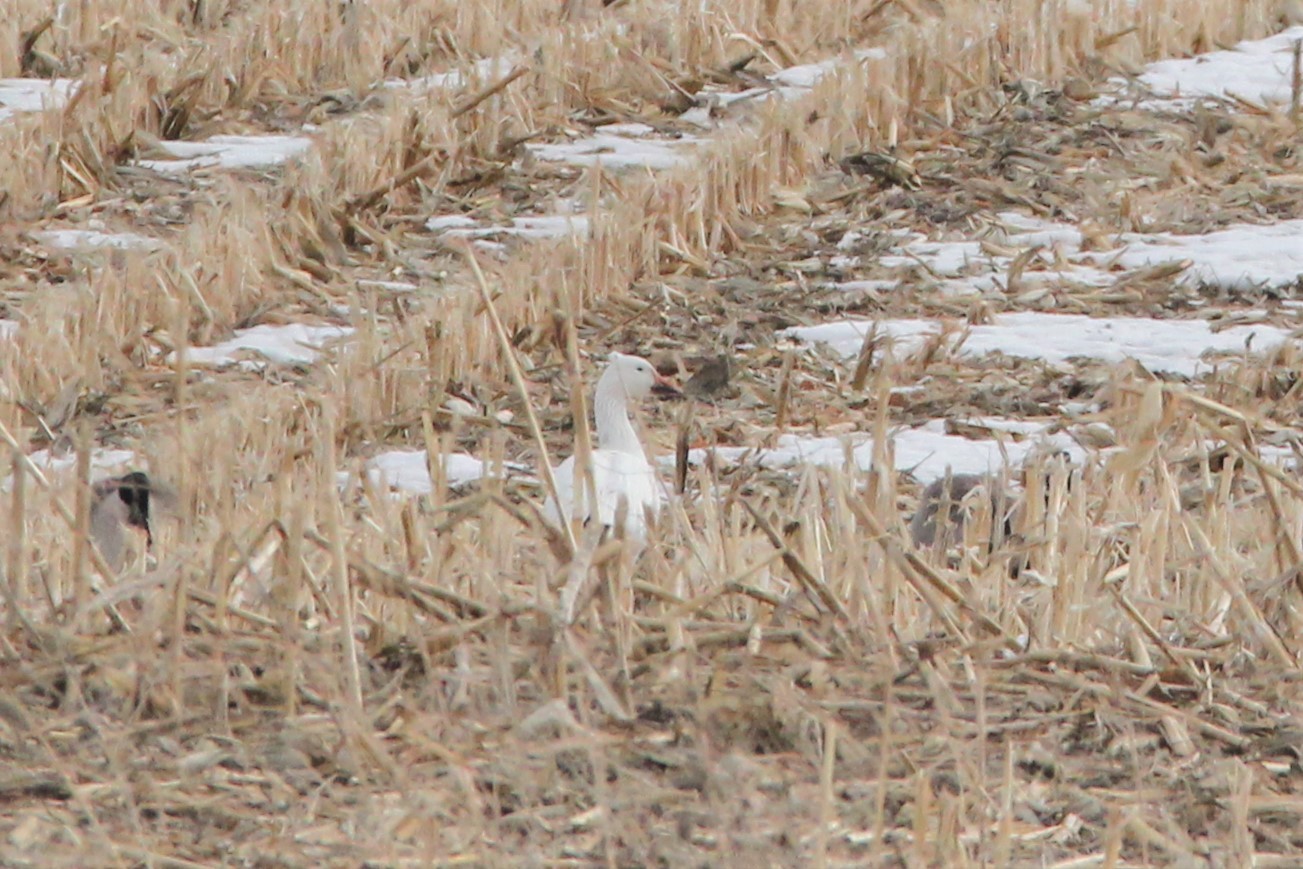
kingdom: Animalia
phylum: Chordata
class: Aves
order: Anseriformes
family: Anatidae
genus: Anser
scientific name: Anser caerulescens
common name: Snow goose
